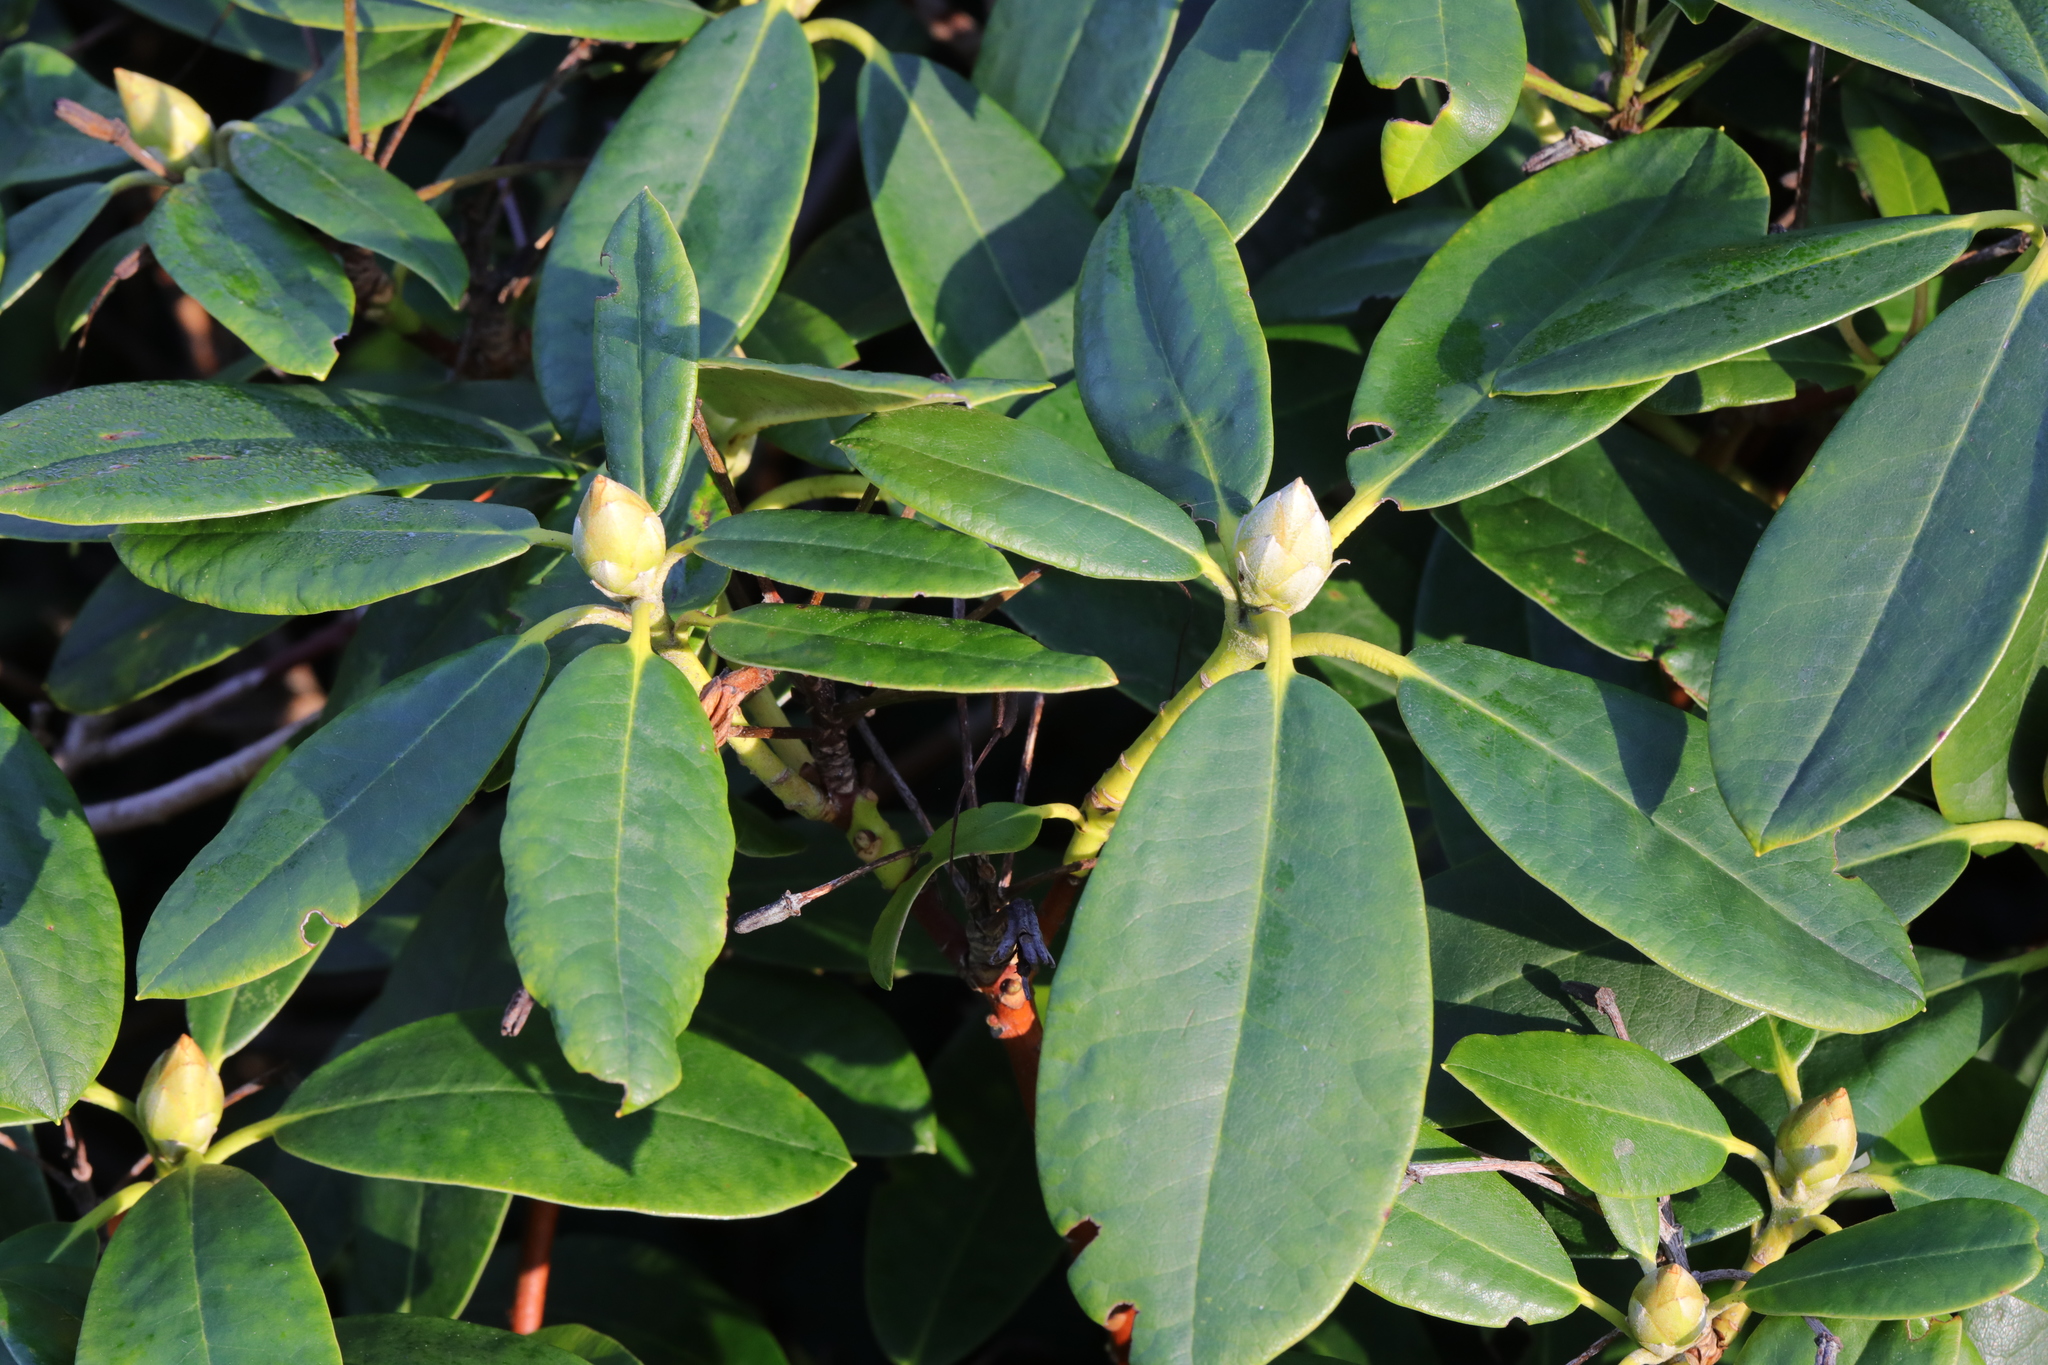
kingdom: Plantae
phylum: Tracheophyta
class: Magnoliopsida
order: Ericales
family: Ericaceae
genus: Rhododendron
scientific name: Rhododendron ponticum
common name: Rhododendron
